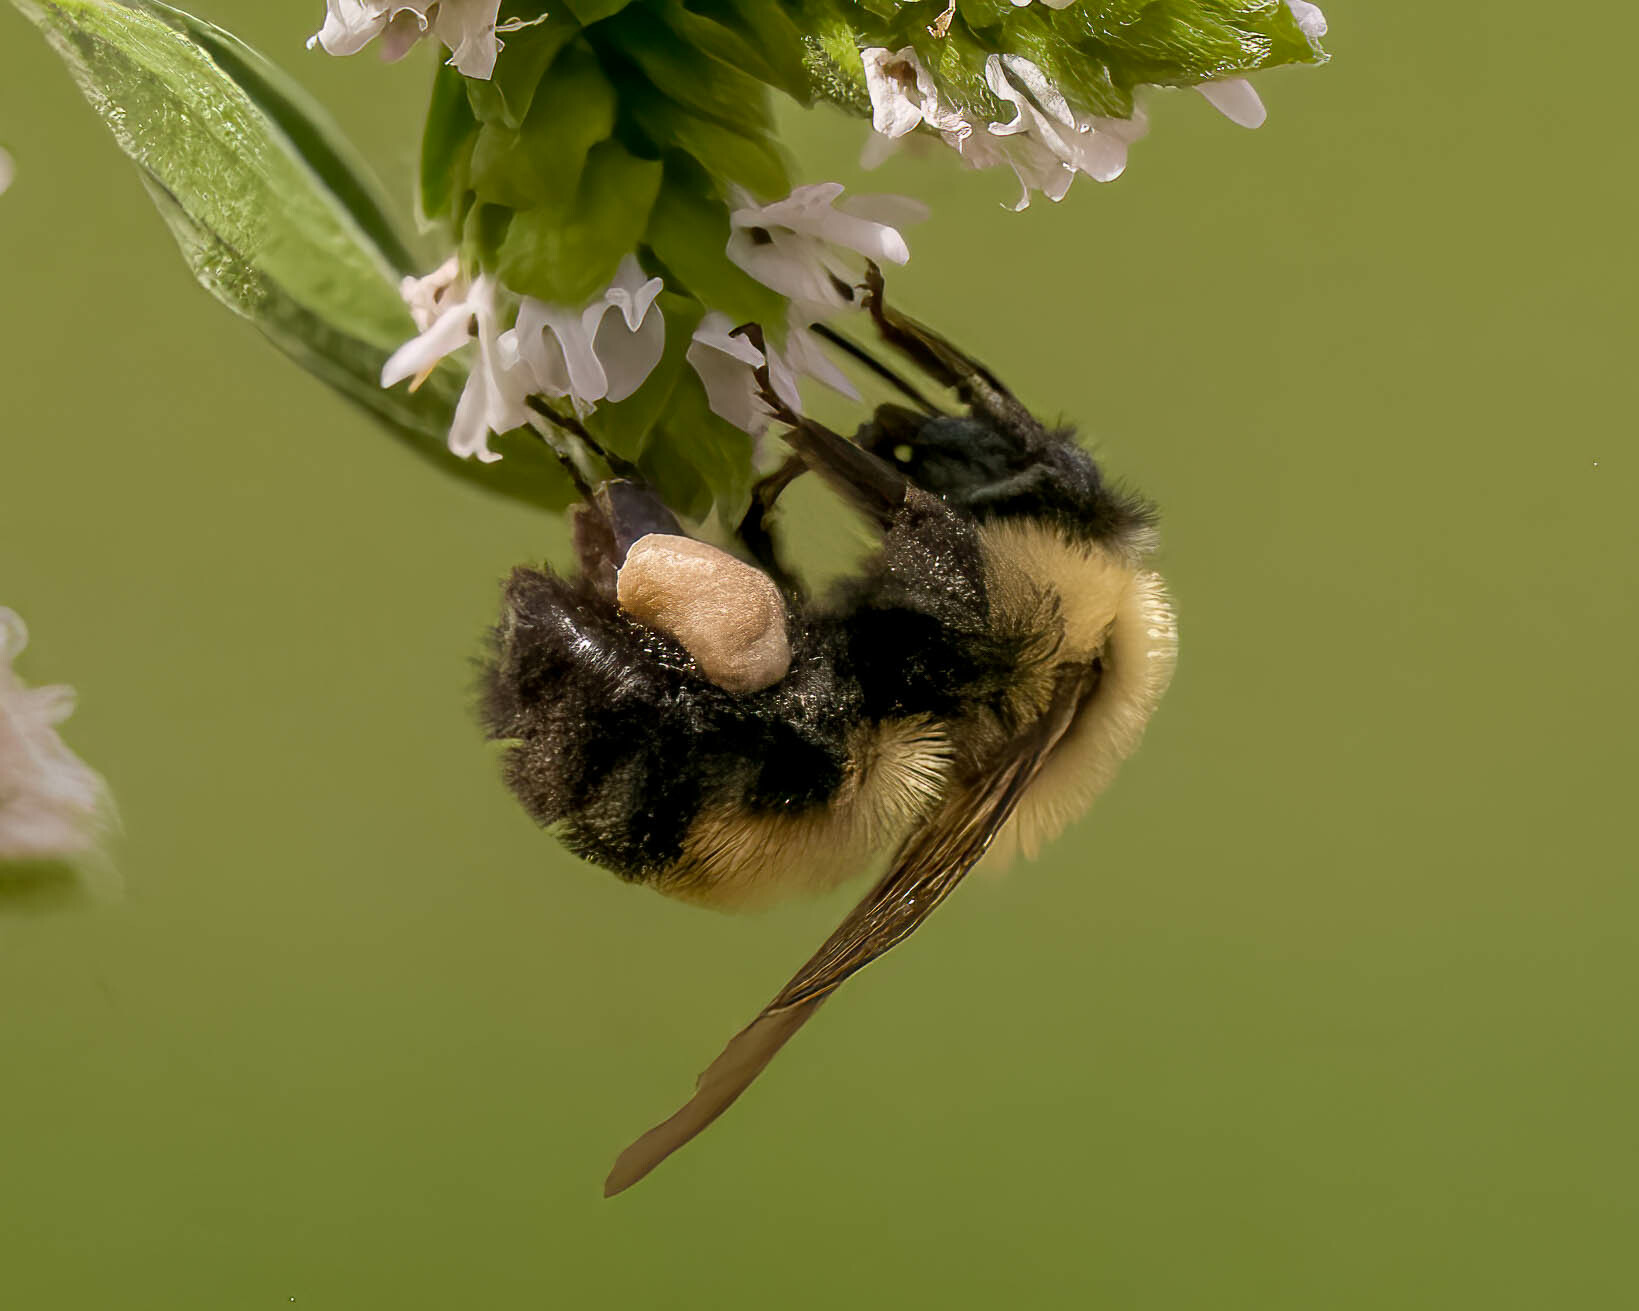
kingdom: Animalia
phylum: Arthropoda
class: Insecta
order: Hymenoptera
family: Apidae
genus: Bombus
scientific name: Bombus bimaculatus
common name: Two-spotted bumble bee
